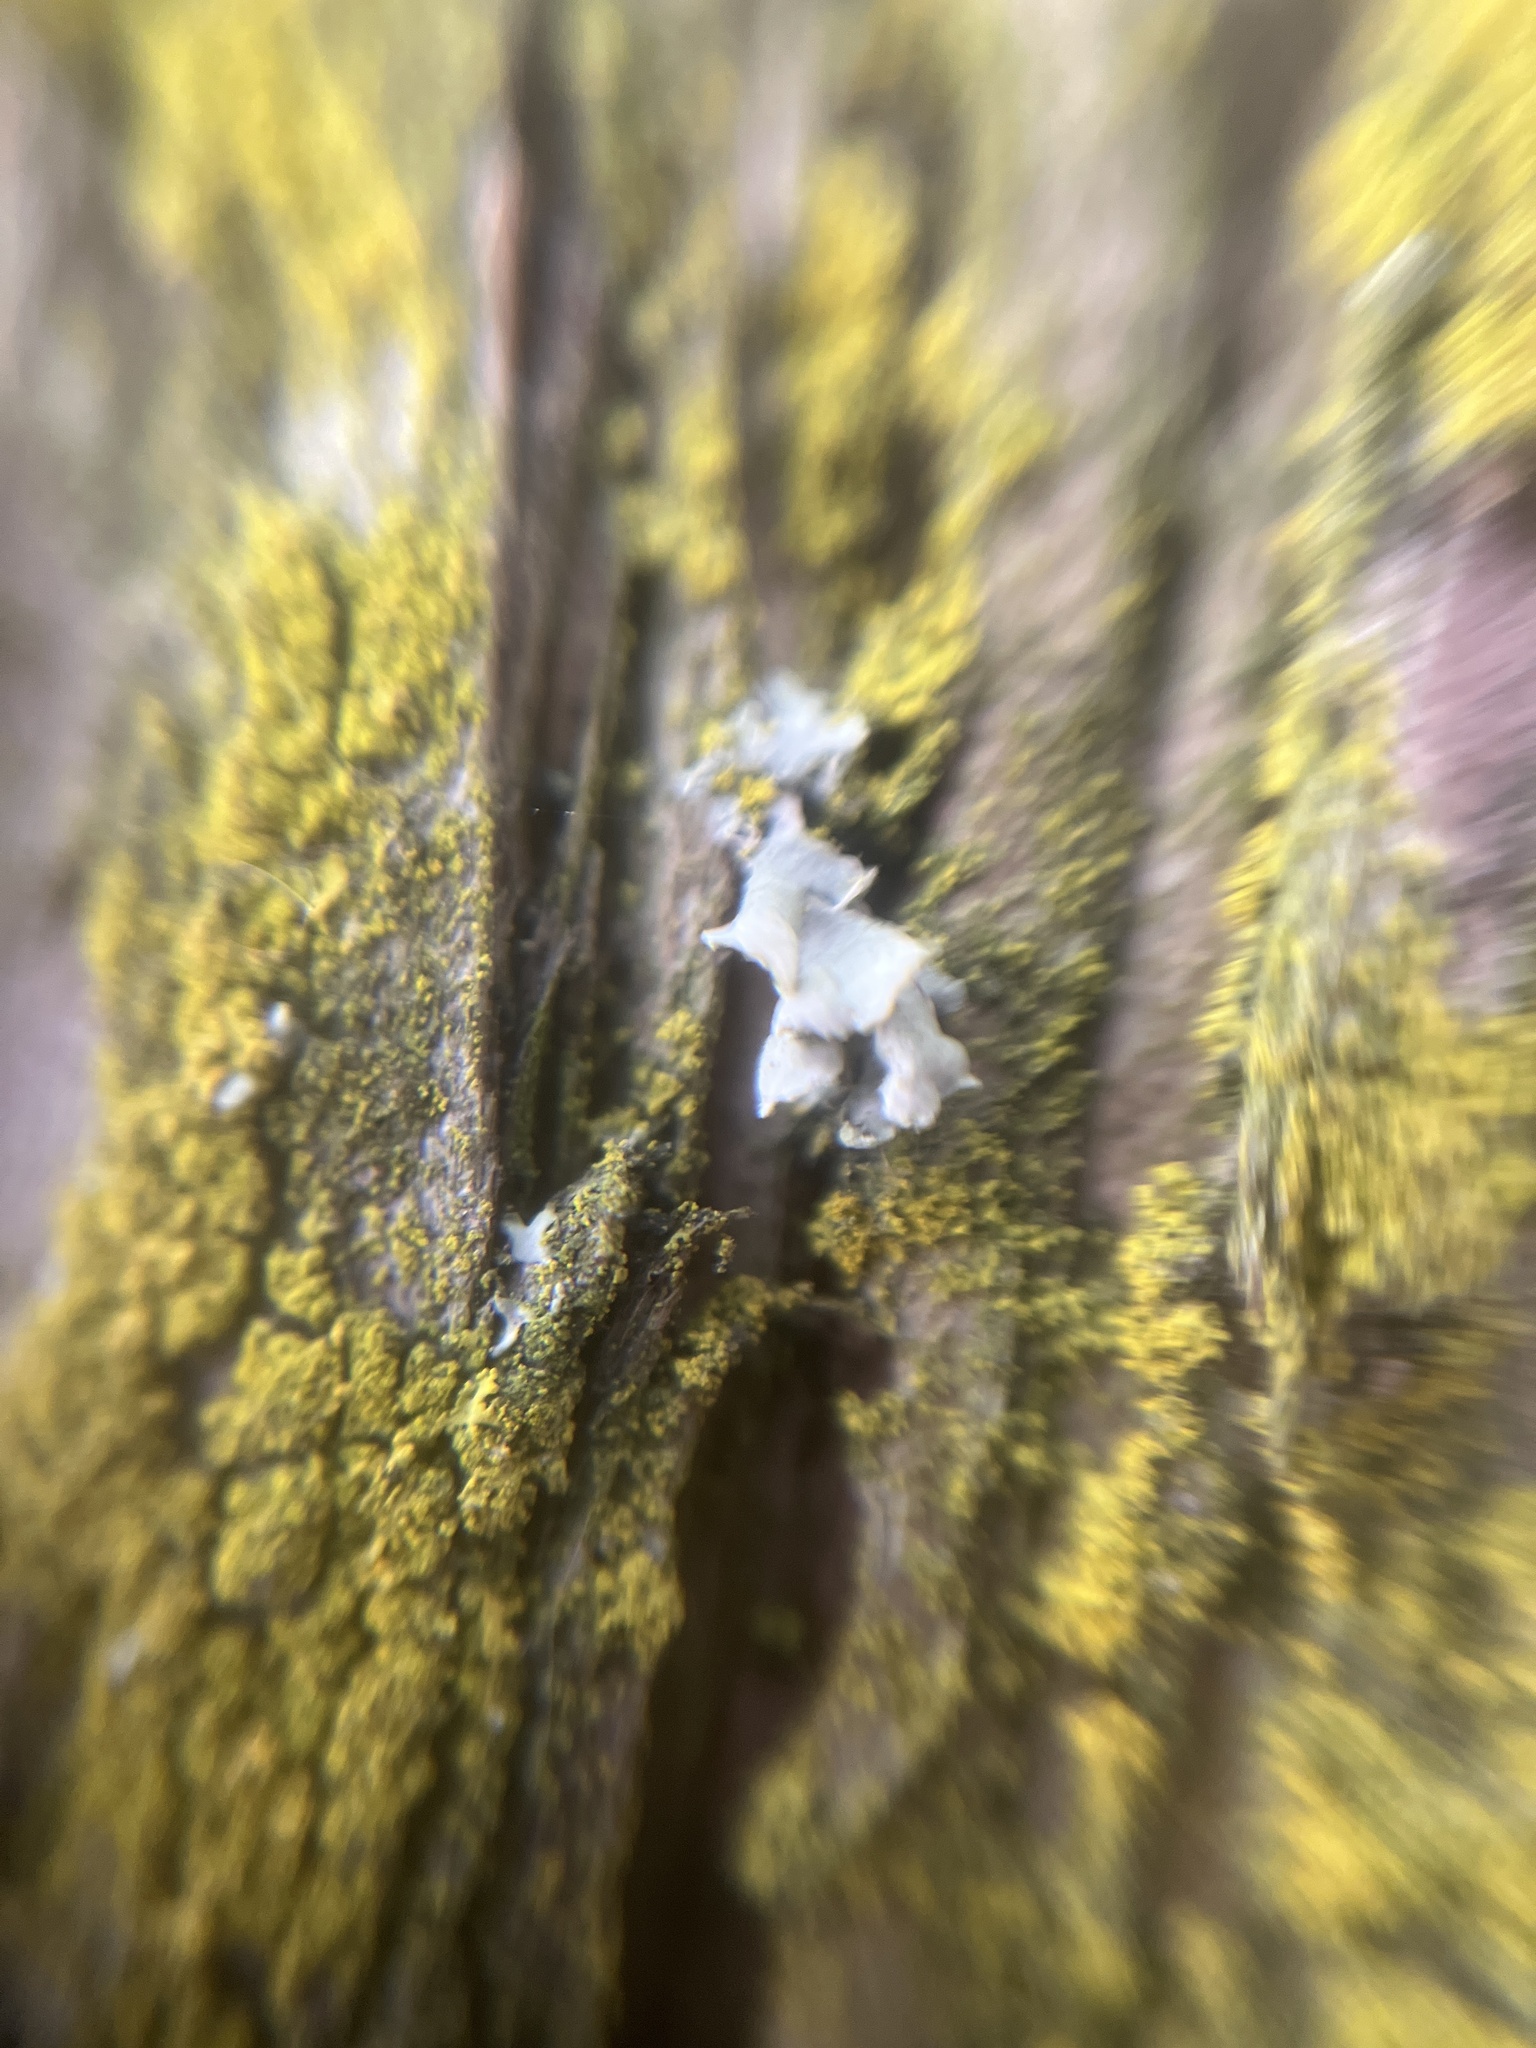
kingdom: Fungi
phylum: Ascomycota
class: Lecanoromycetes
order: Caliciales
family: Physciaceae
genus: Physcia
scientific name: Physcia adscendens
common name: Hooded rosette lichen
